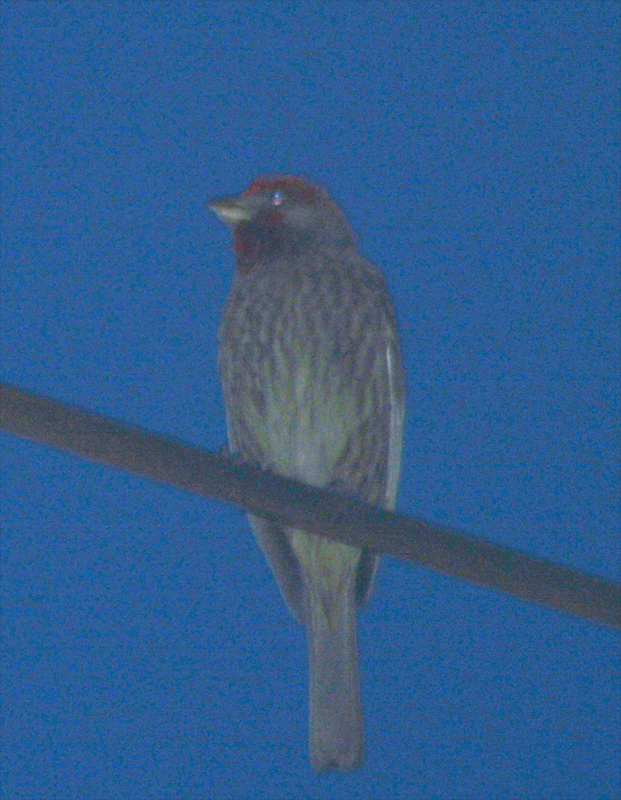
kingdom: Animalia
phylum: Chordata
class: Aves
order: Passeriformes
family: Fringillidae
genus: Haemorhous
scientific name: Haemorhous mexicanus
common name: House finch
